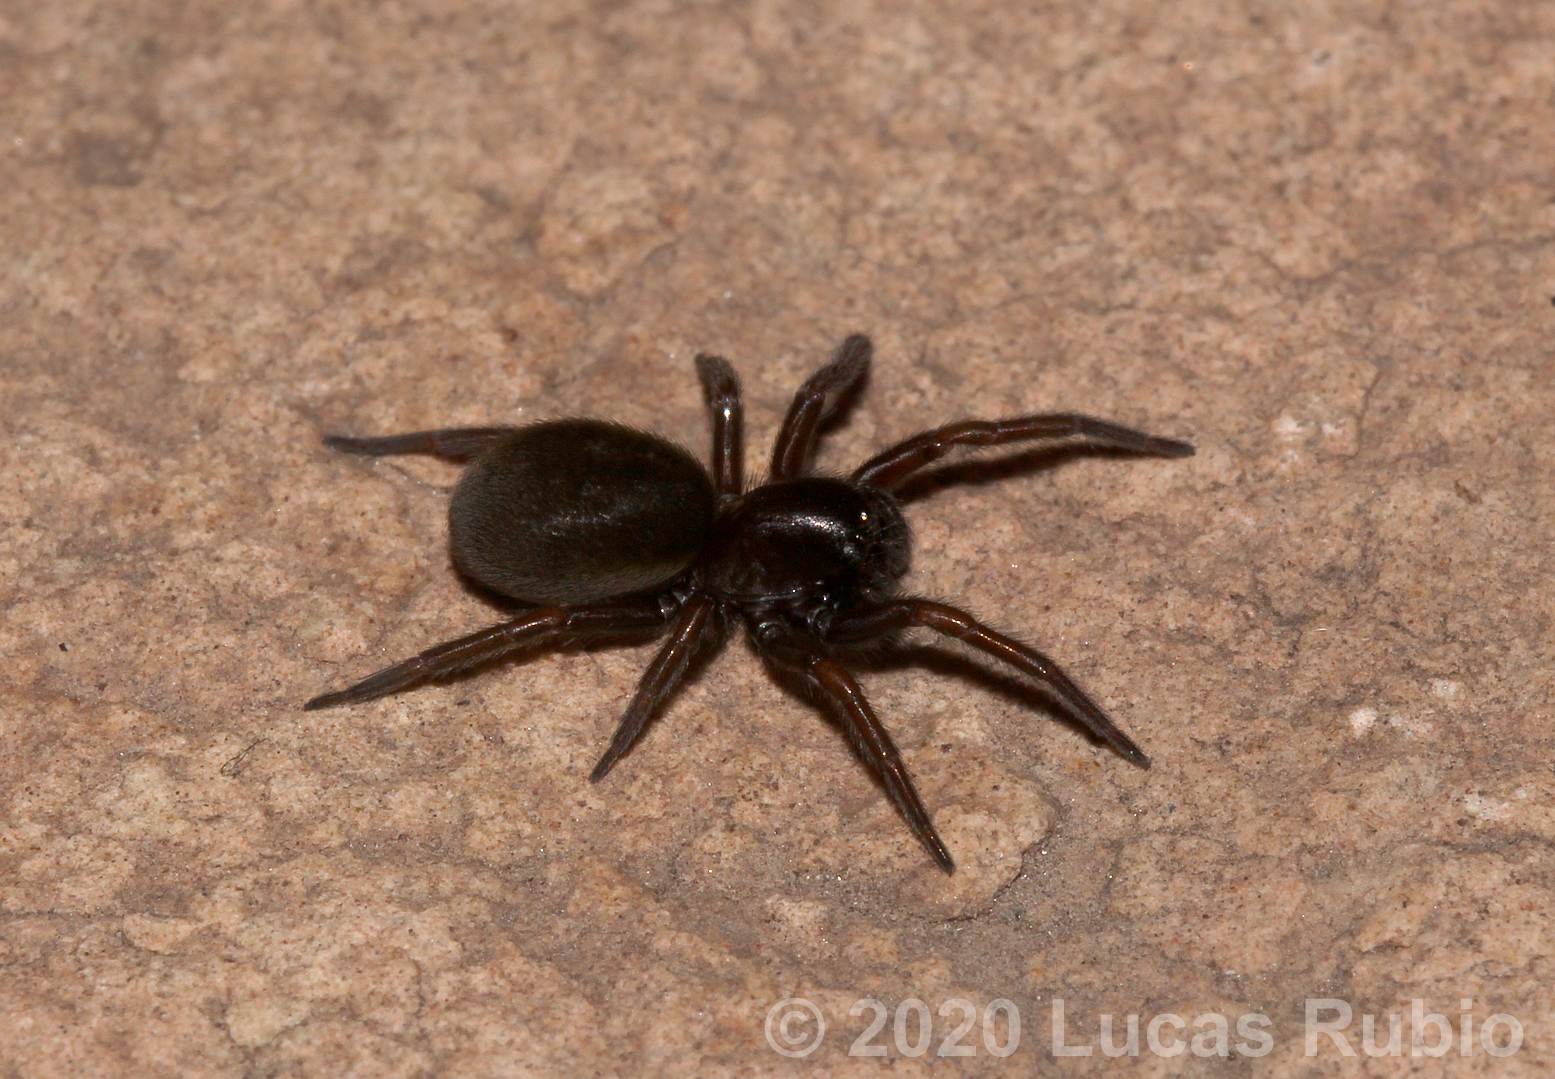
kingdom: Animalia
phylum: Arthropoda
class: Arachnida
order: Araneae
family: Titanoecidae
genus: Goeldia
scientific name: Goeldia
